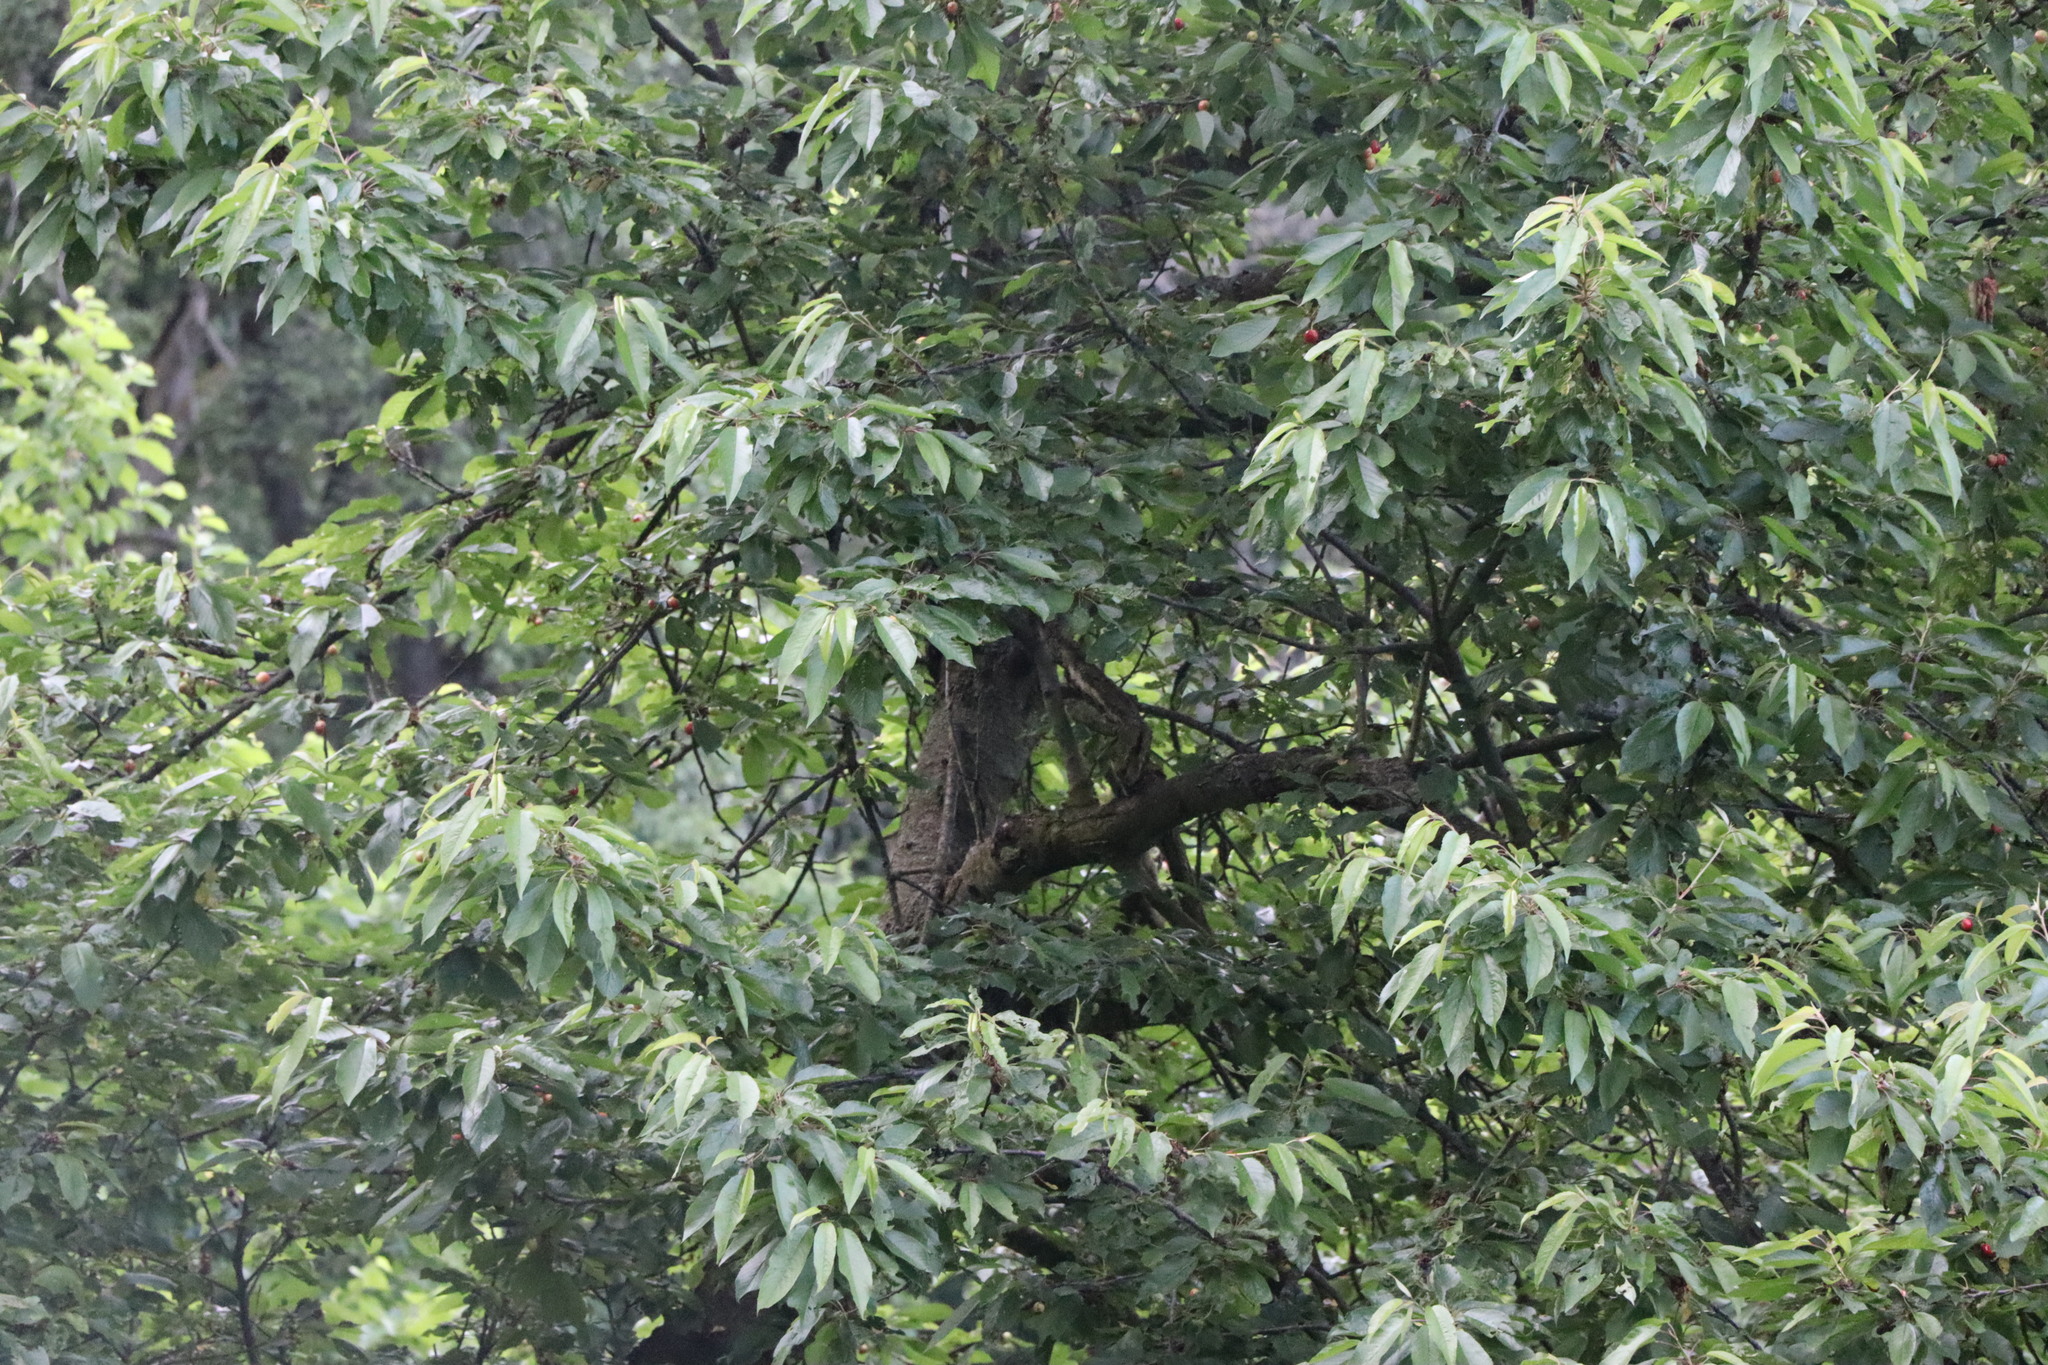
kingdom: Animalia
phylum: Chordata
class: Aves
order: Piciformes
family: Picidae
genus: Dendrocopos
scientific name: Dendrocopos major
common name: Great spotted woodpecker
